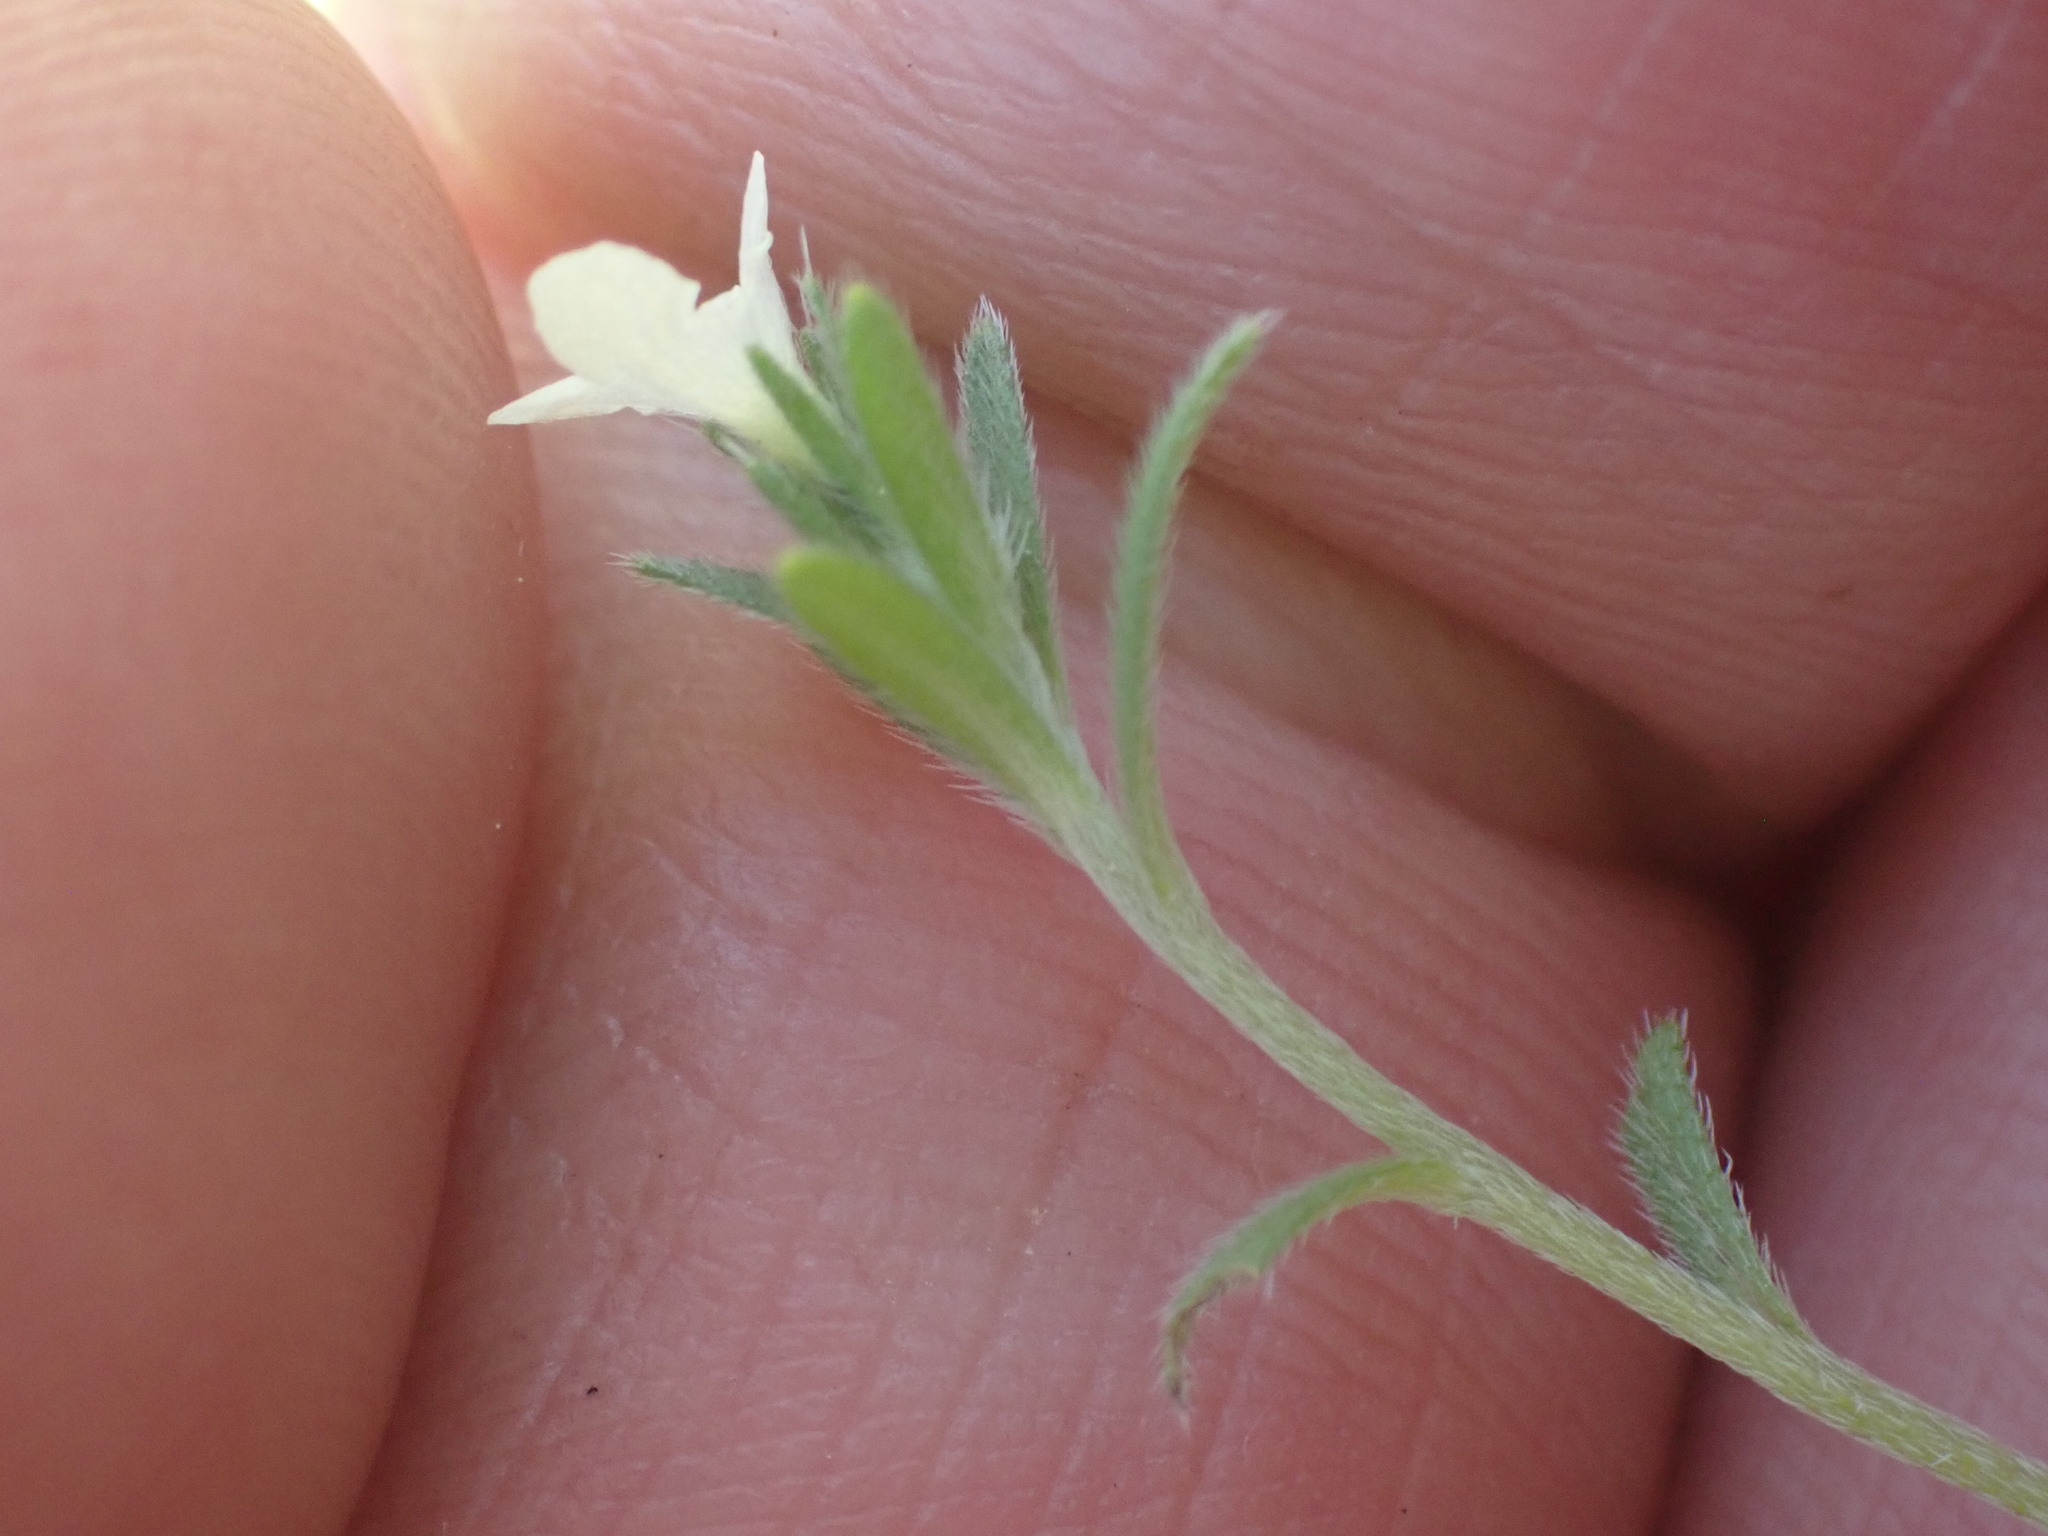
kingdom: Plantae
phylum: Tracheophyta
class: Magnoliopsida
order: Boraginales
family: Boraginaceae
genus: Buglossoides
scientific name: Buglossoides arvensis
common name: Corn gromwell
